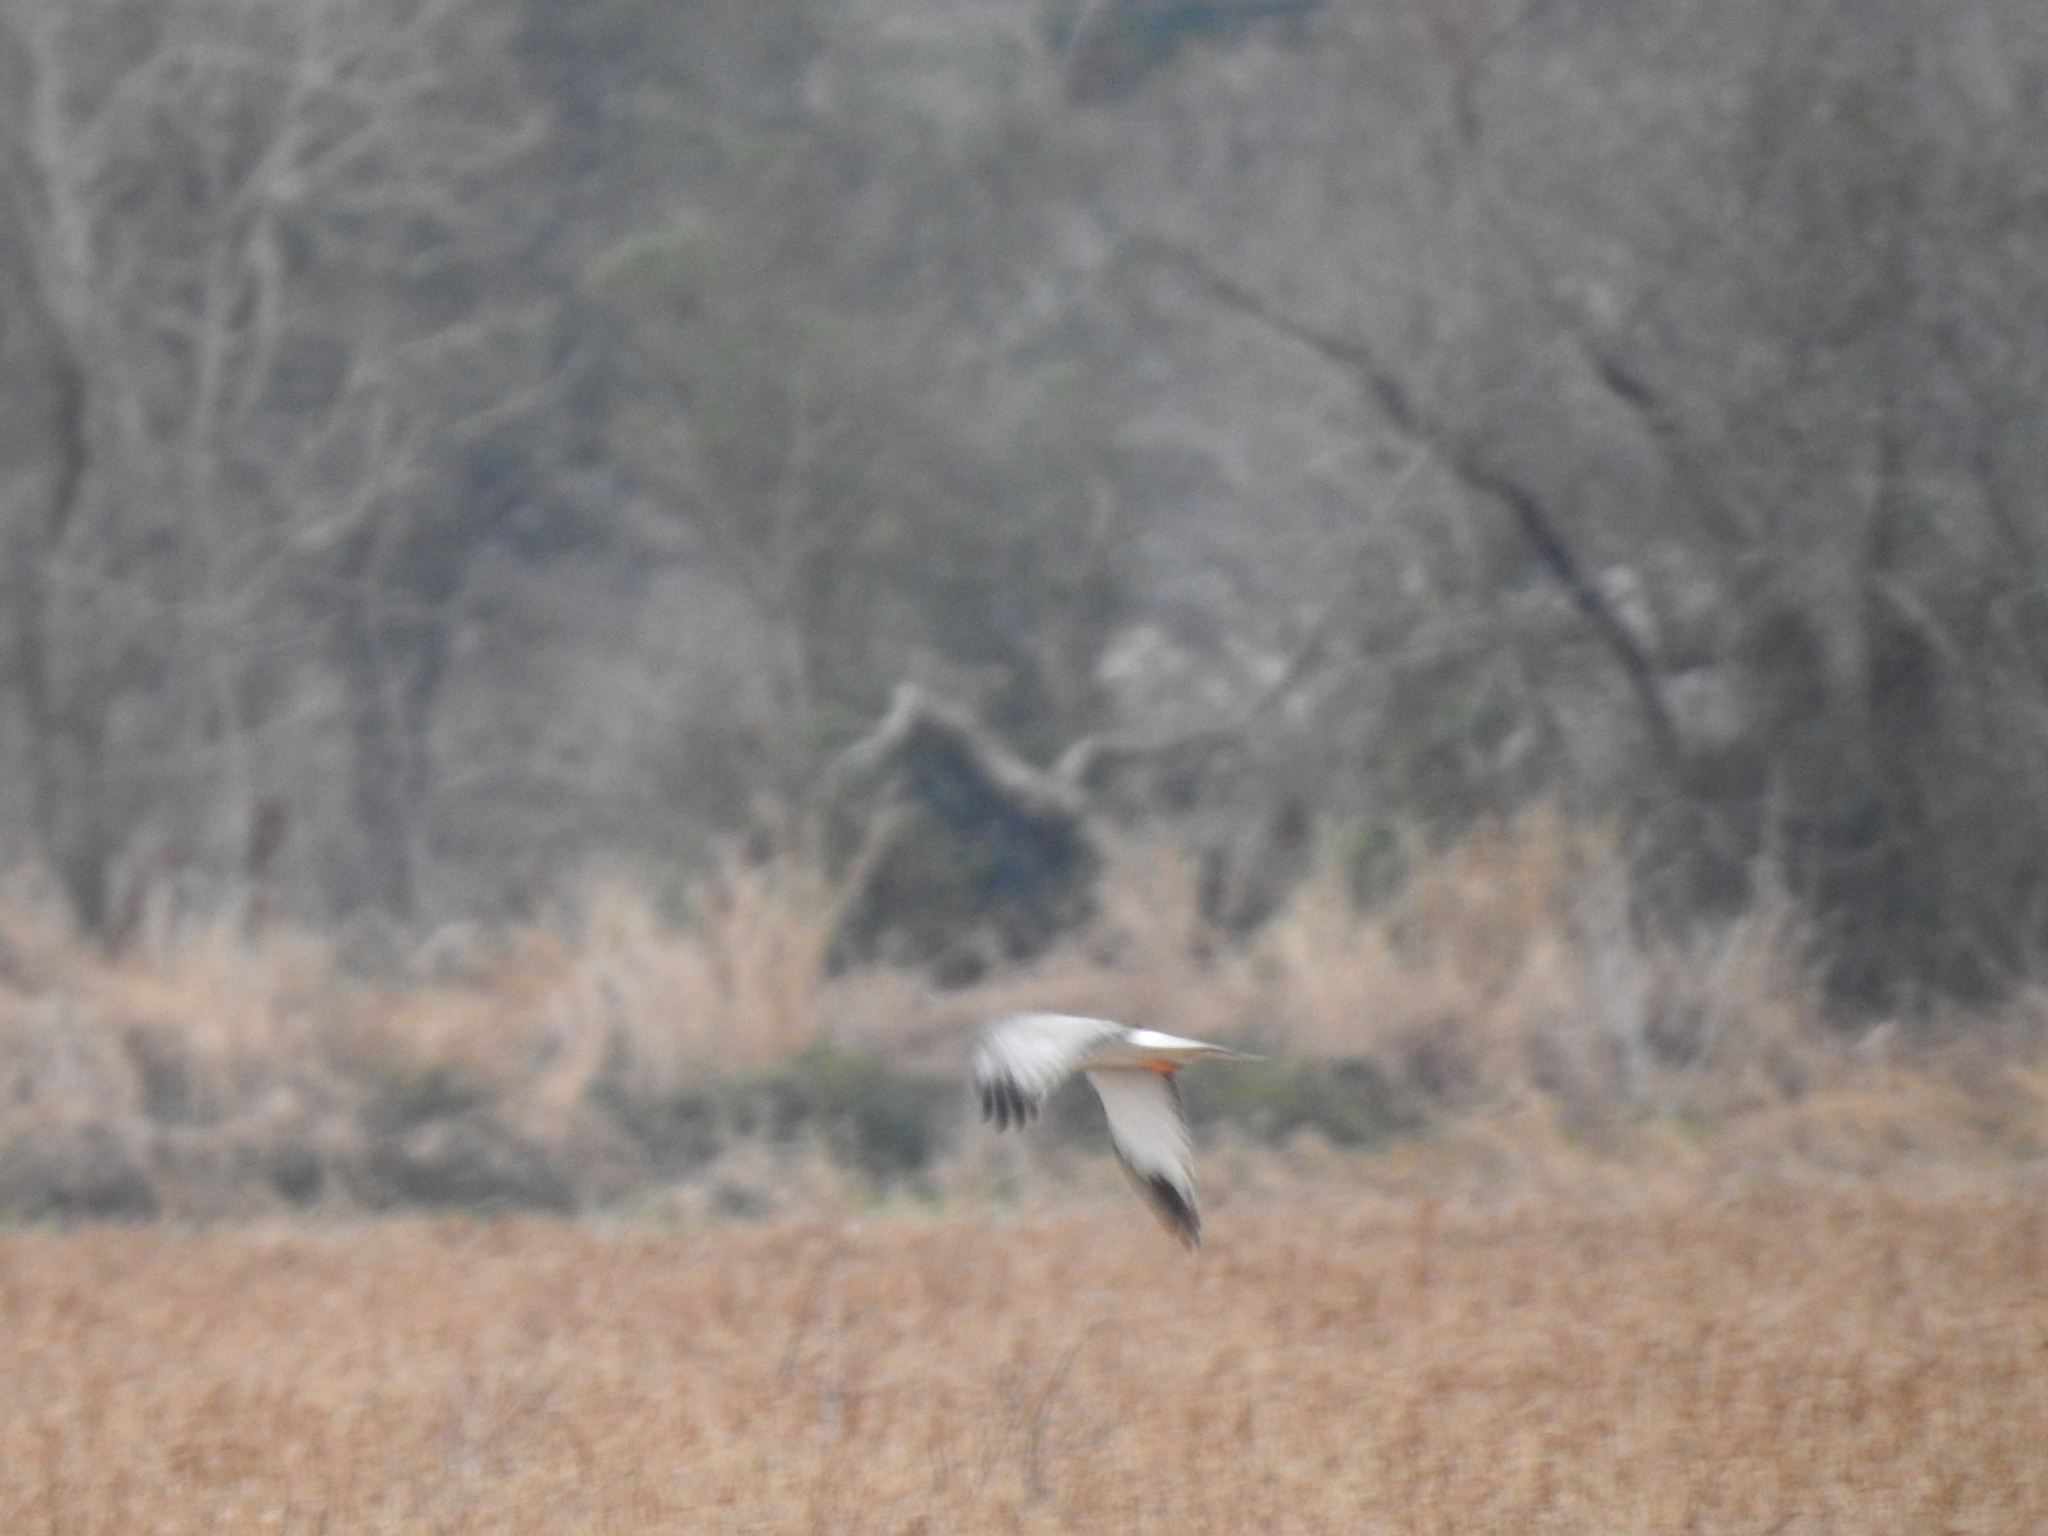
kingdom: Animalia
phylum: Chordata
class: Aves
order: Accipitriformes
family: Accipitridae
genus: Circus
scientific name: Circus cyaneus
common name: Hen harrier
